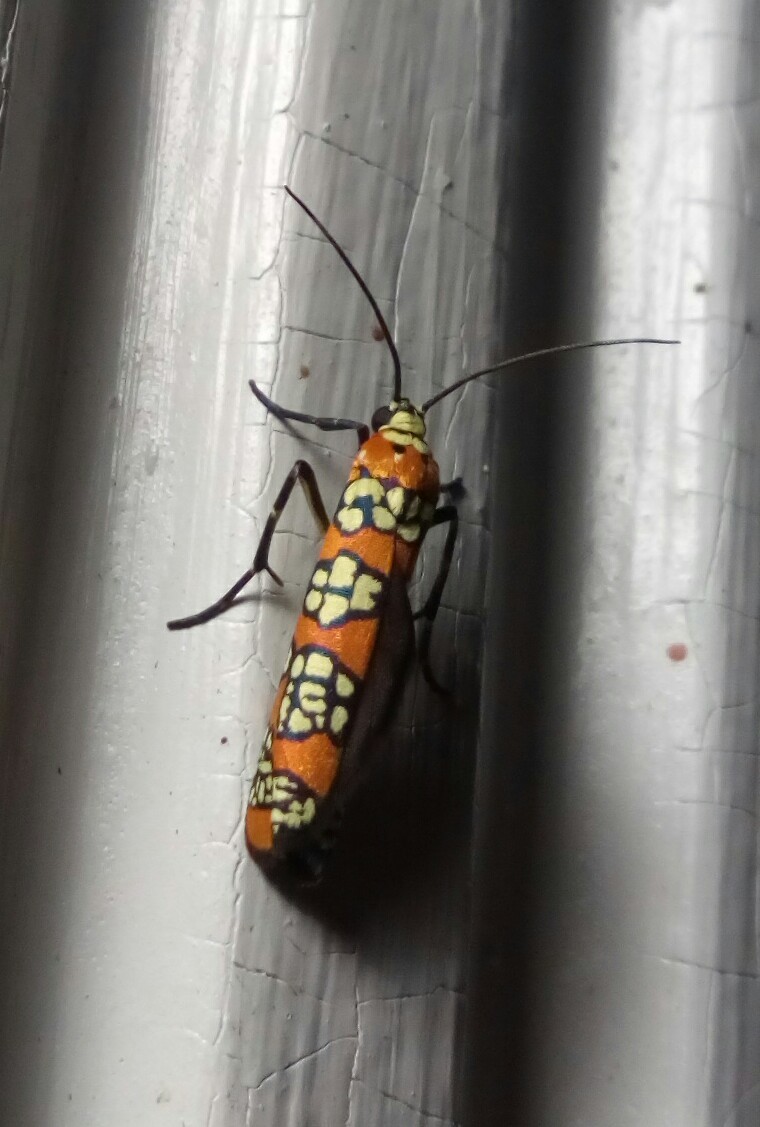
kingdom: Animalia
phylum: Arthropoda
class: Insecta
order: Lepidoptera
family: Attevidae
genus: Atteva
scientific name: Atteva punctella
